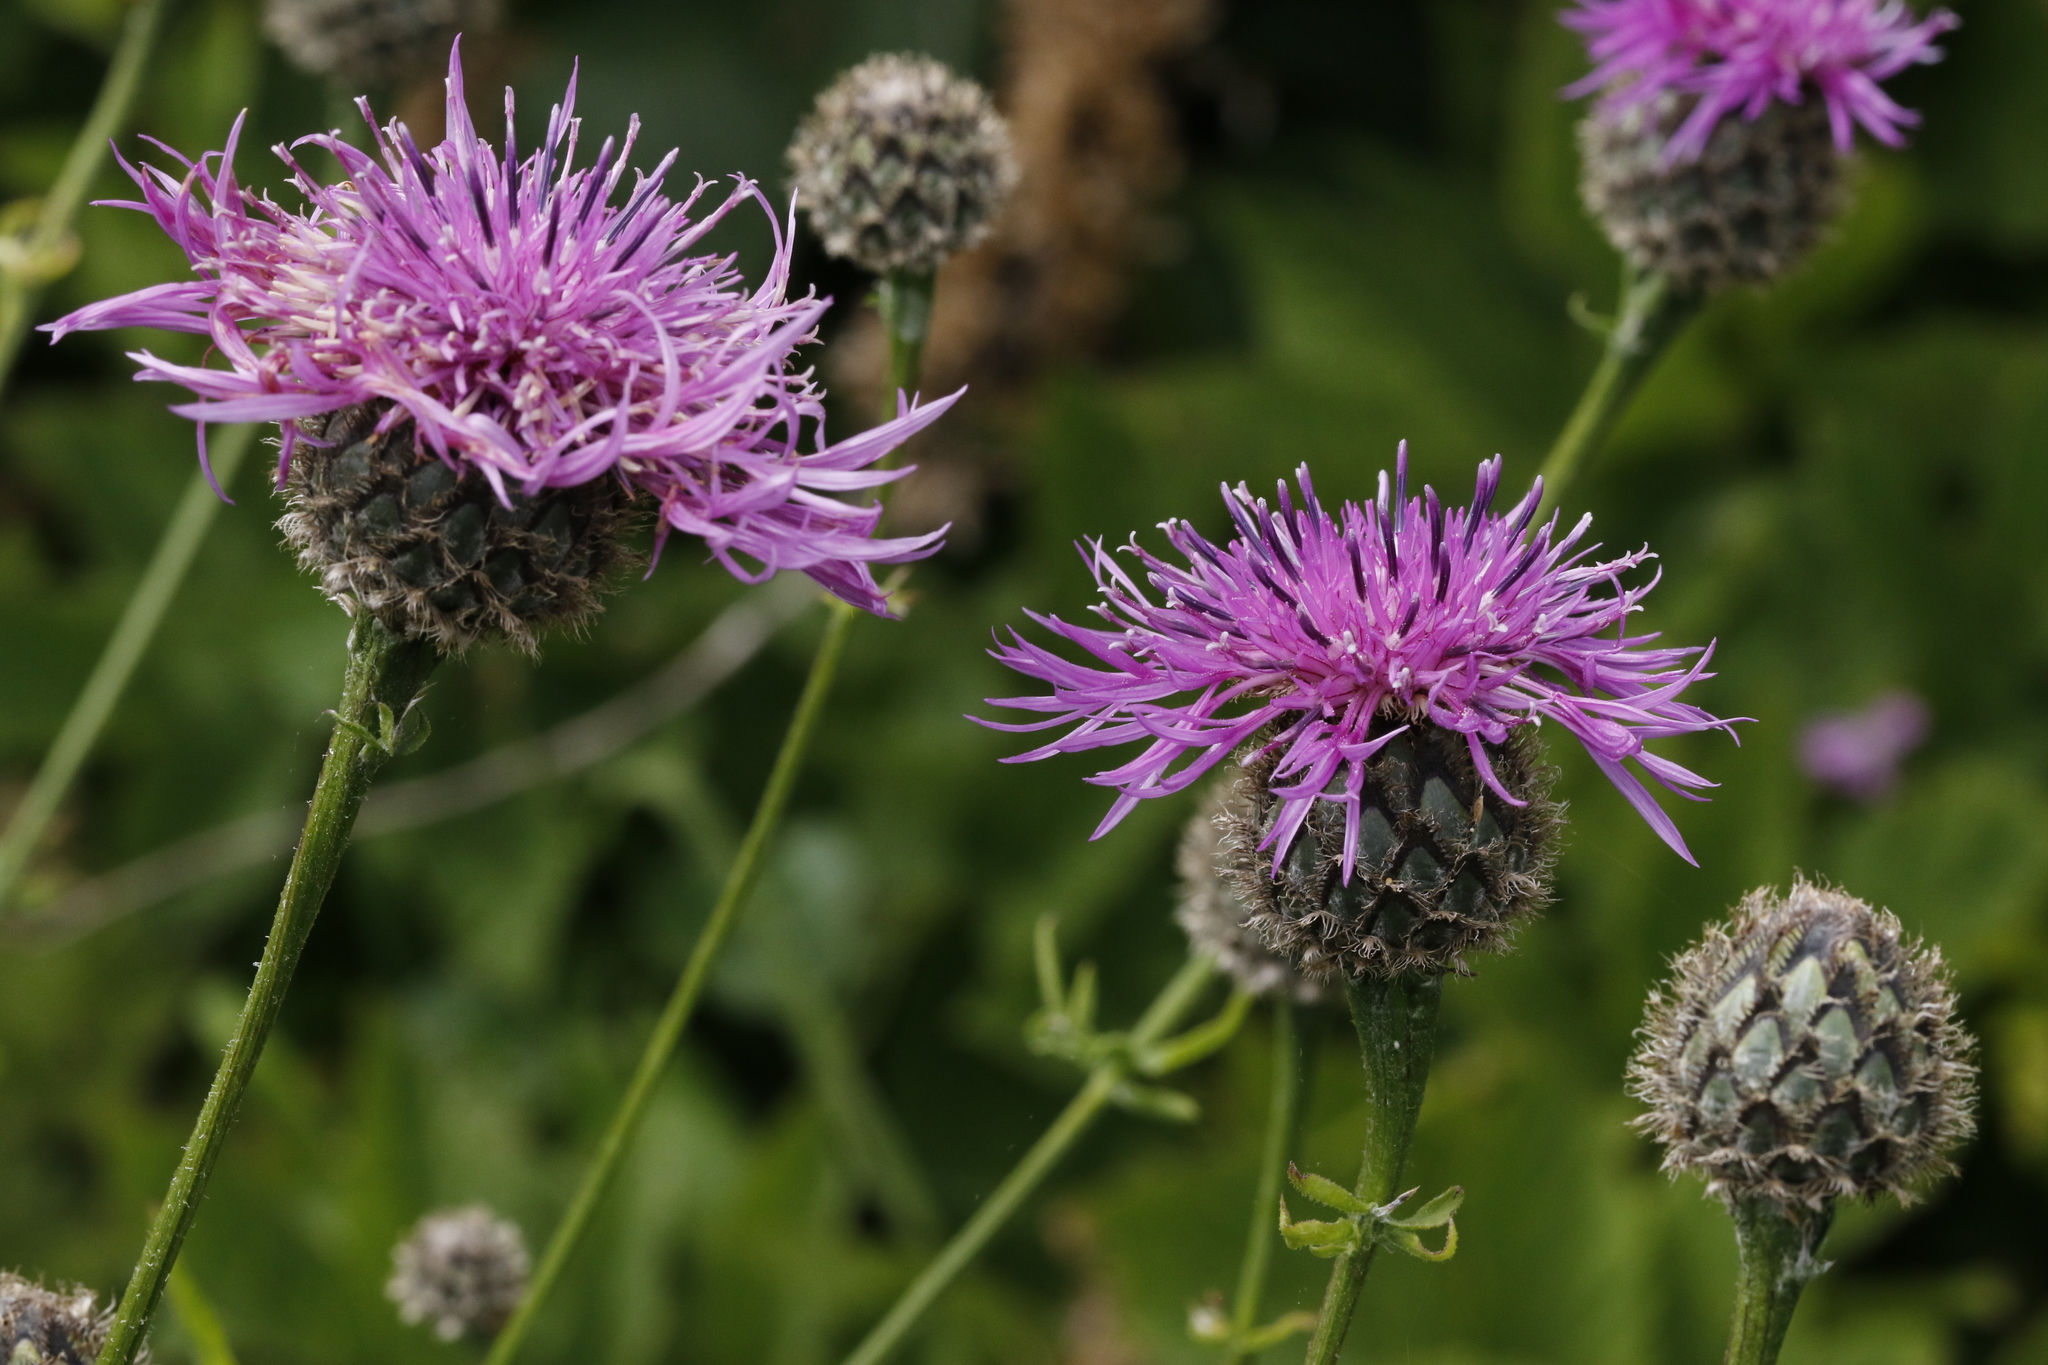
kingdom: Plantae
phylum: Tracheophyta
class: Magnoliopsida
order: Asterales
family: Asteraceae
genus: Centaurea
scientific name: Centaurea scabiosa
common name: Greater knapweed
